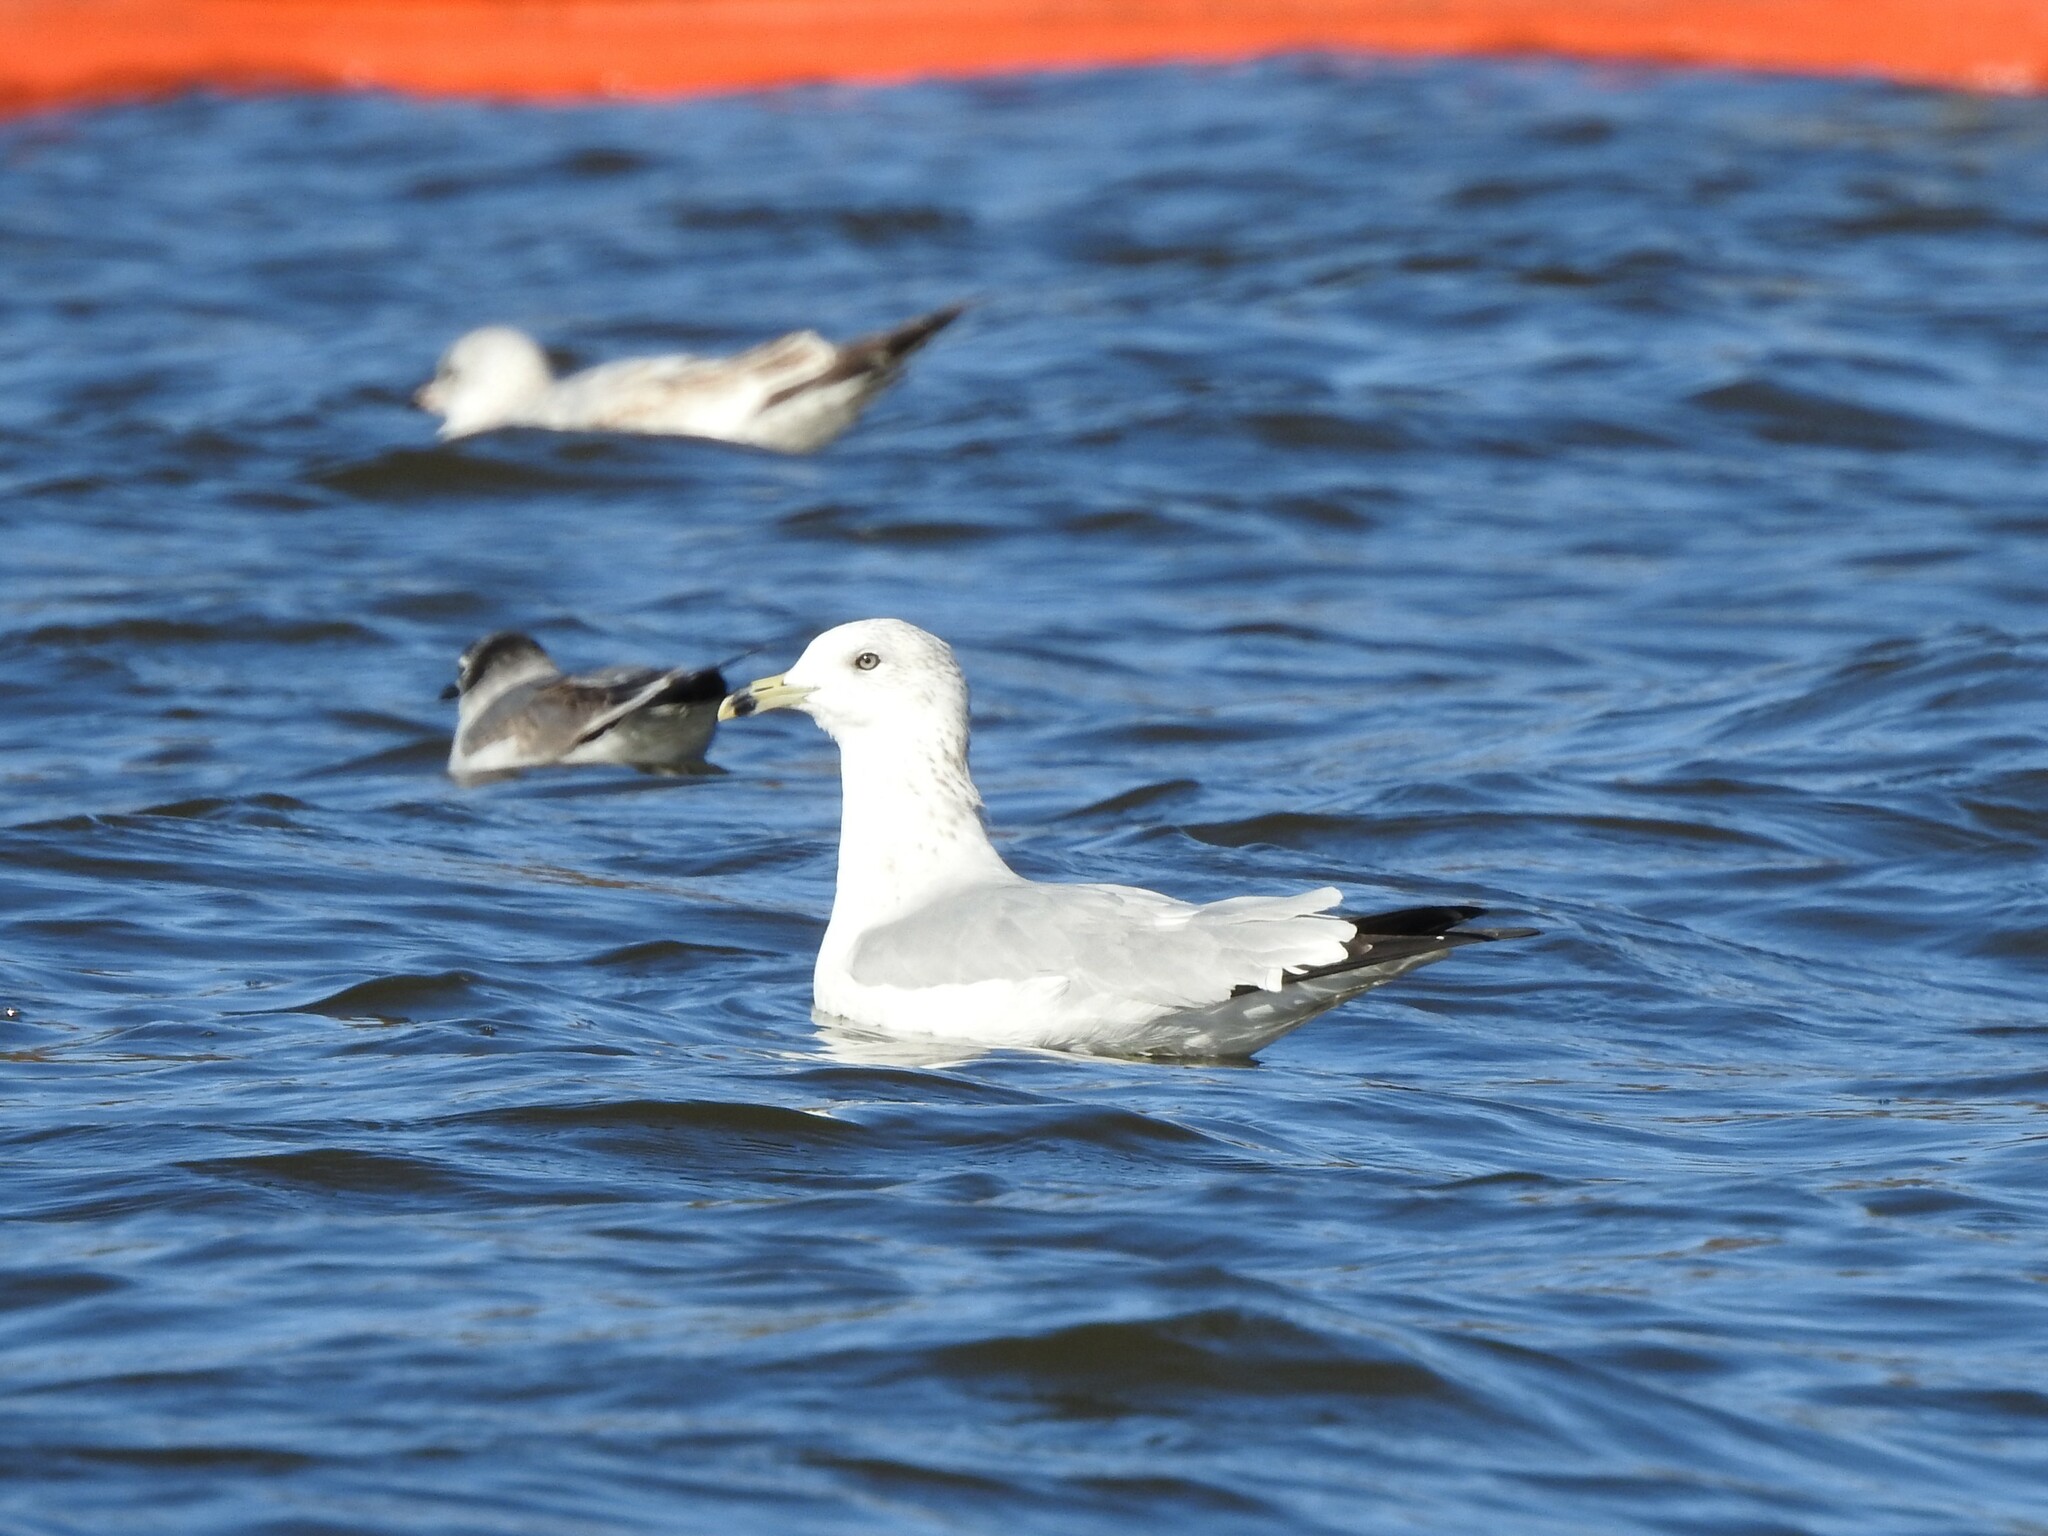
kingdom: Animalia
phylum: Chordata
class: Aves
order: Charadriiformes
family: Laridae
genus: Larus
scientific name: Larus delawarensis
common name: Ring-billed gull
